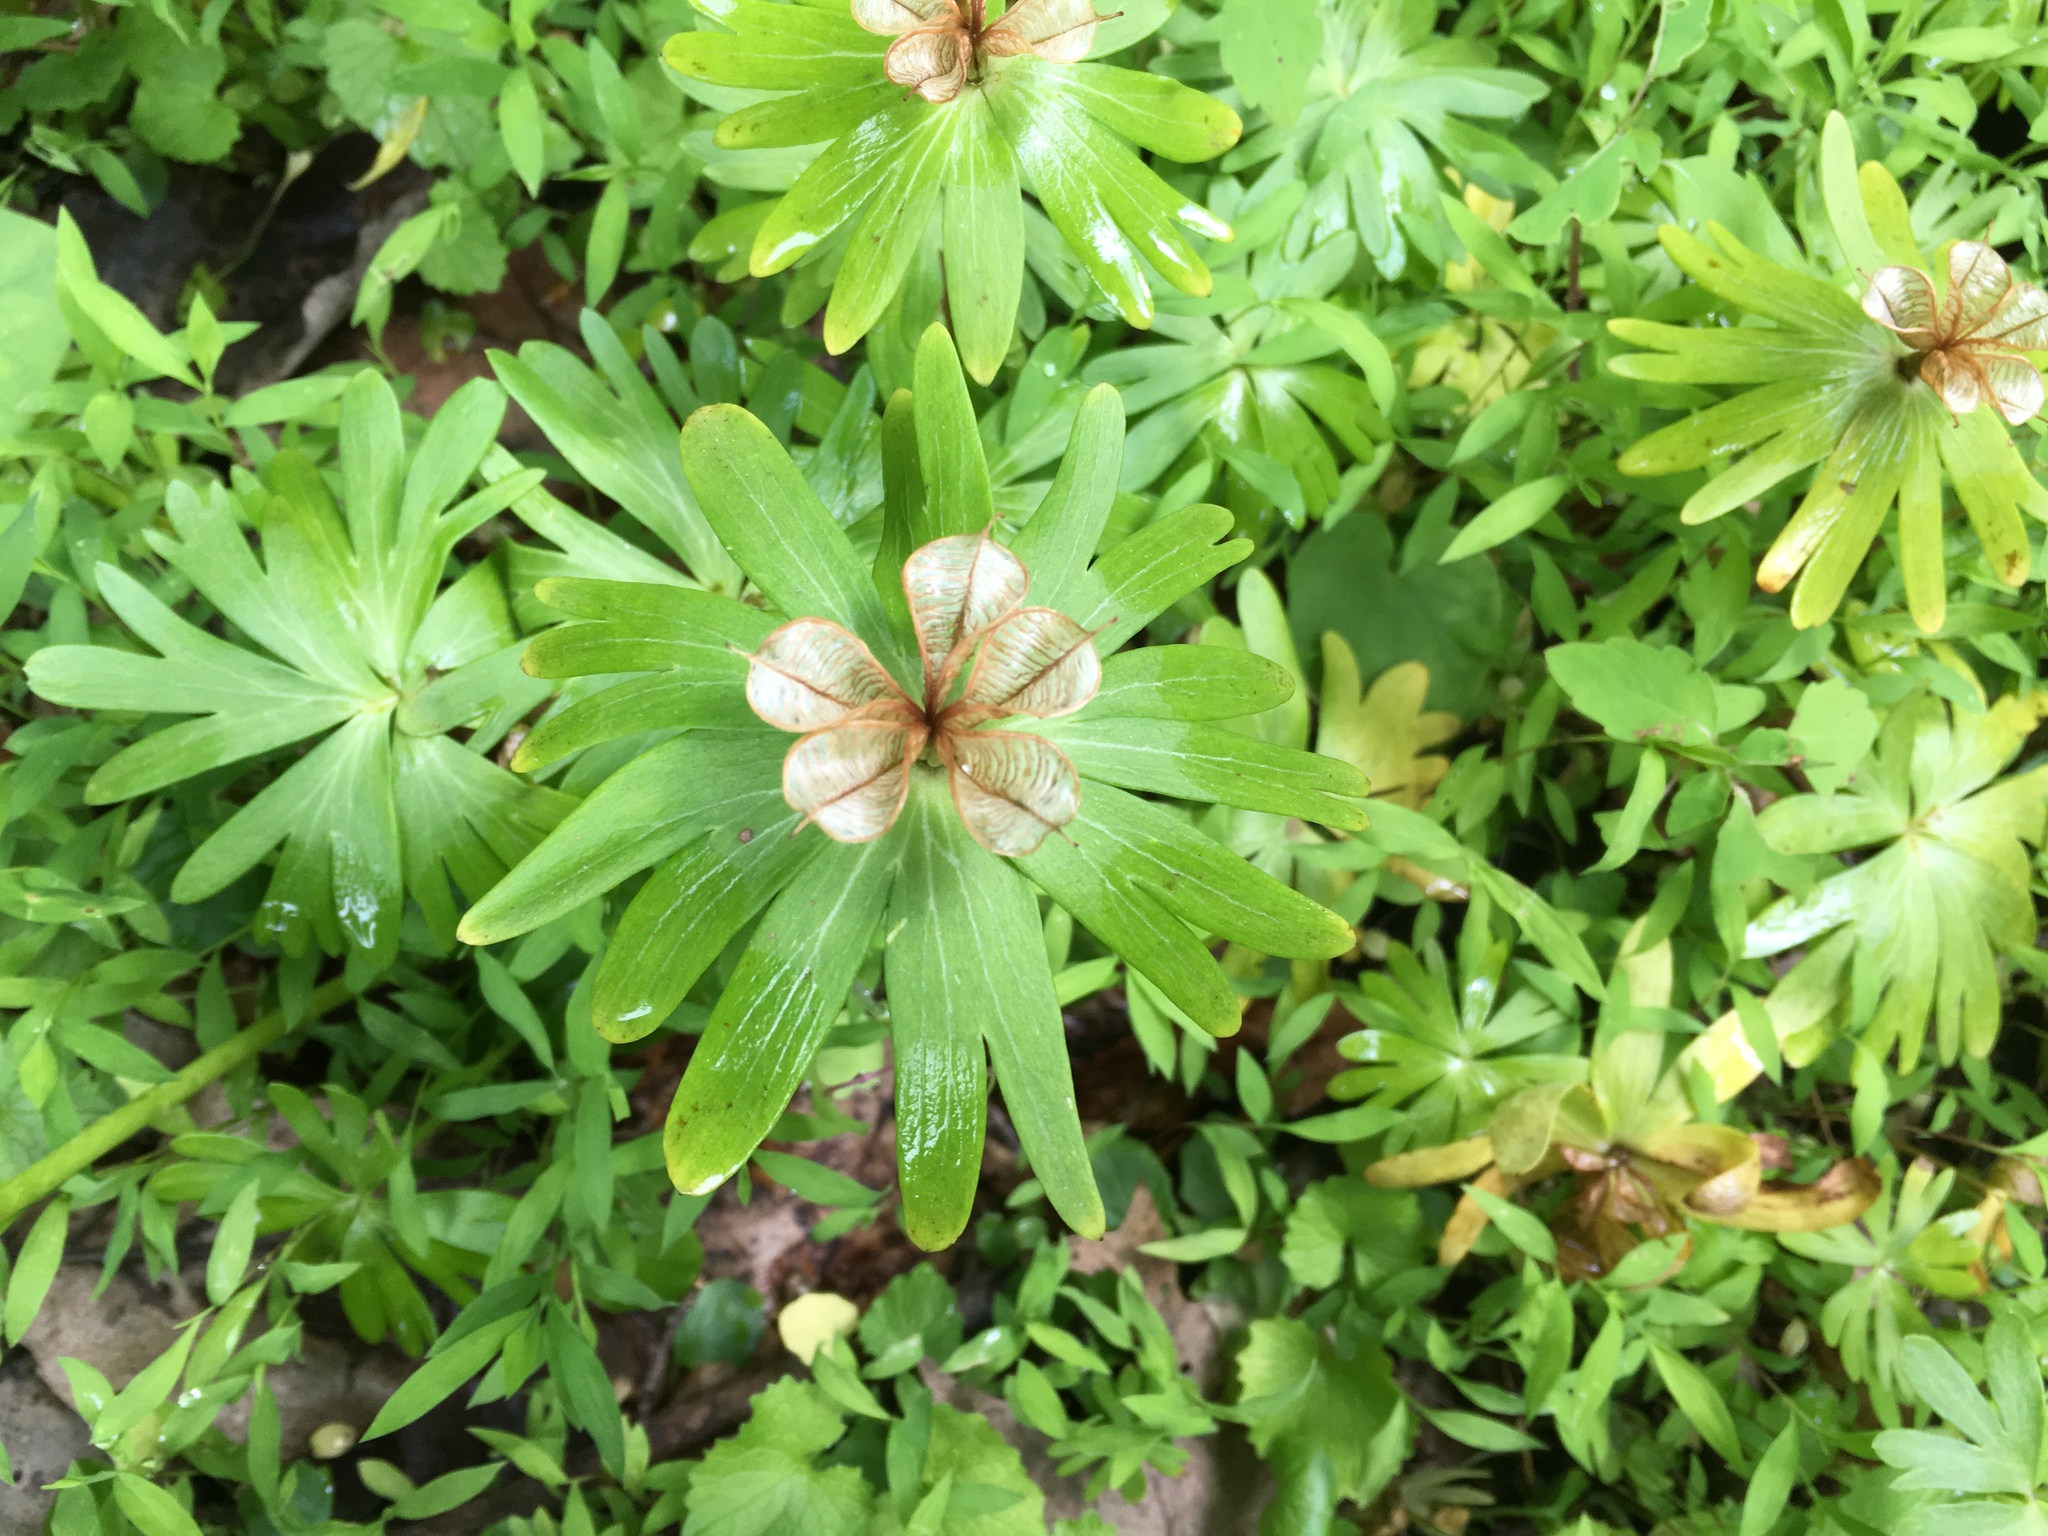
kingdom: Plantae
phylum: Tracheophyta
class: Magnoliopsida
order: Ranunculales
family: Ranunculaceae
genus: Eranthis
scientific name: Eranthis hyemalis
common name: Winter aconite
